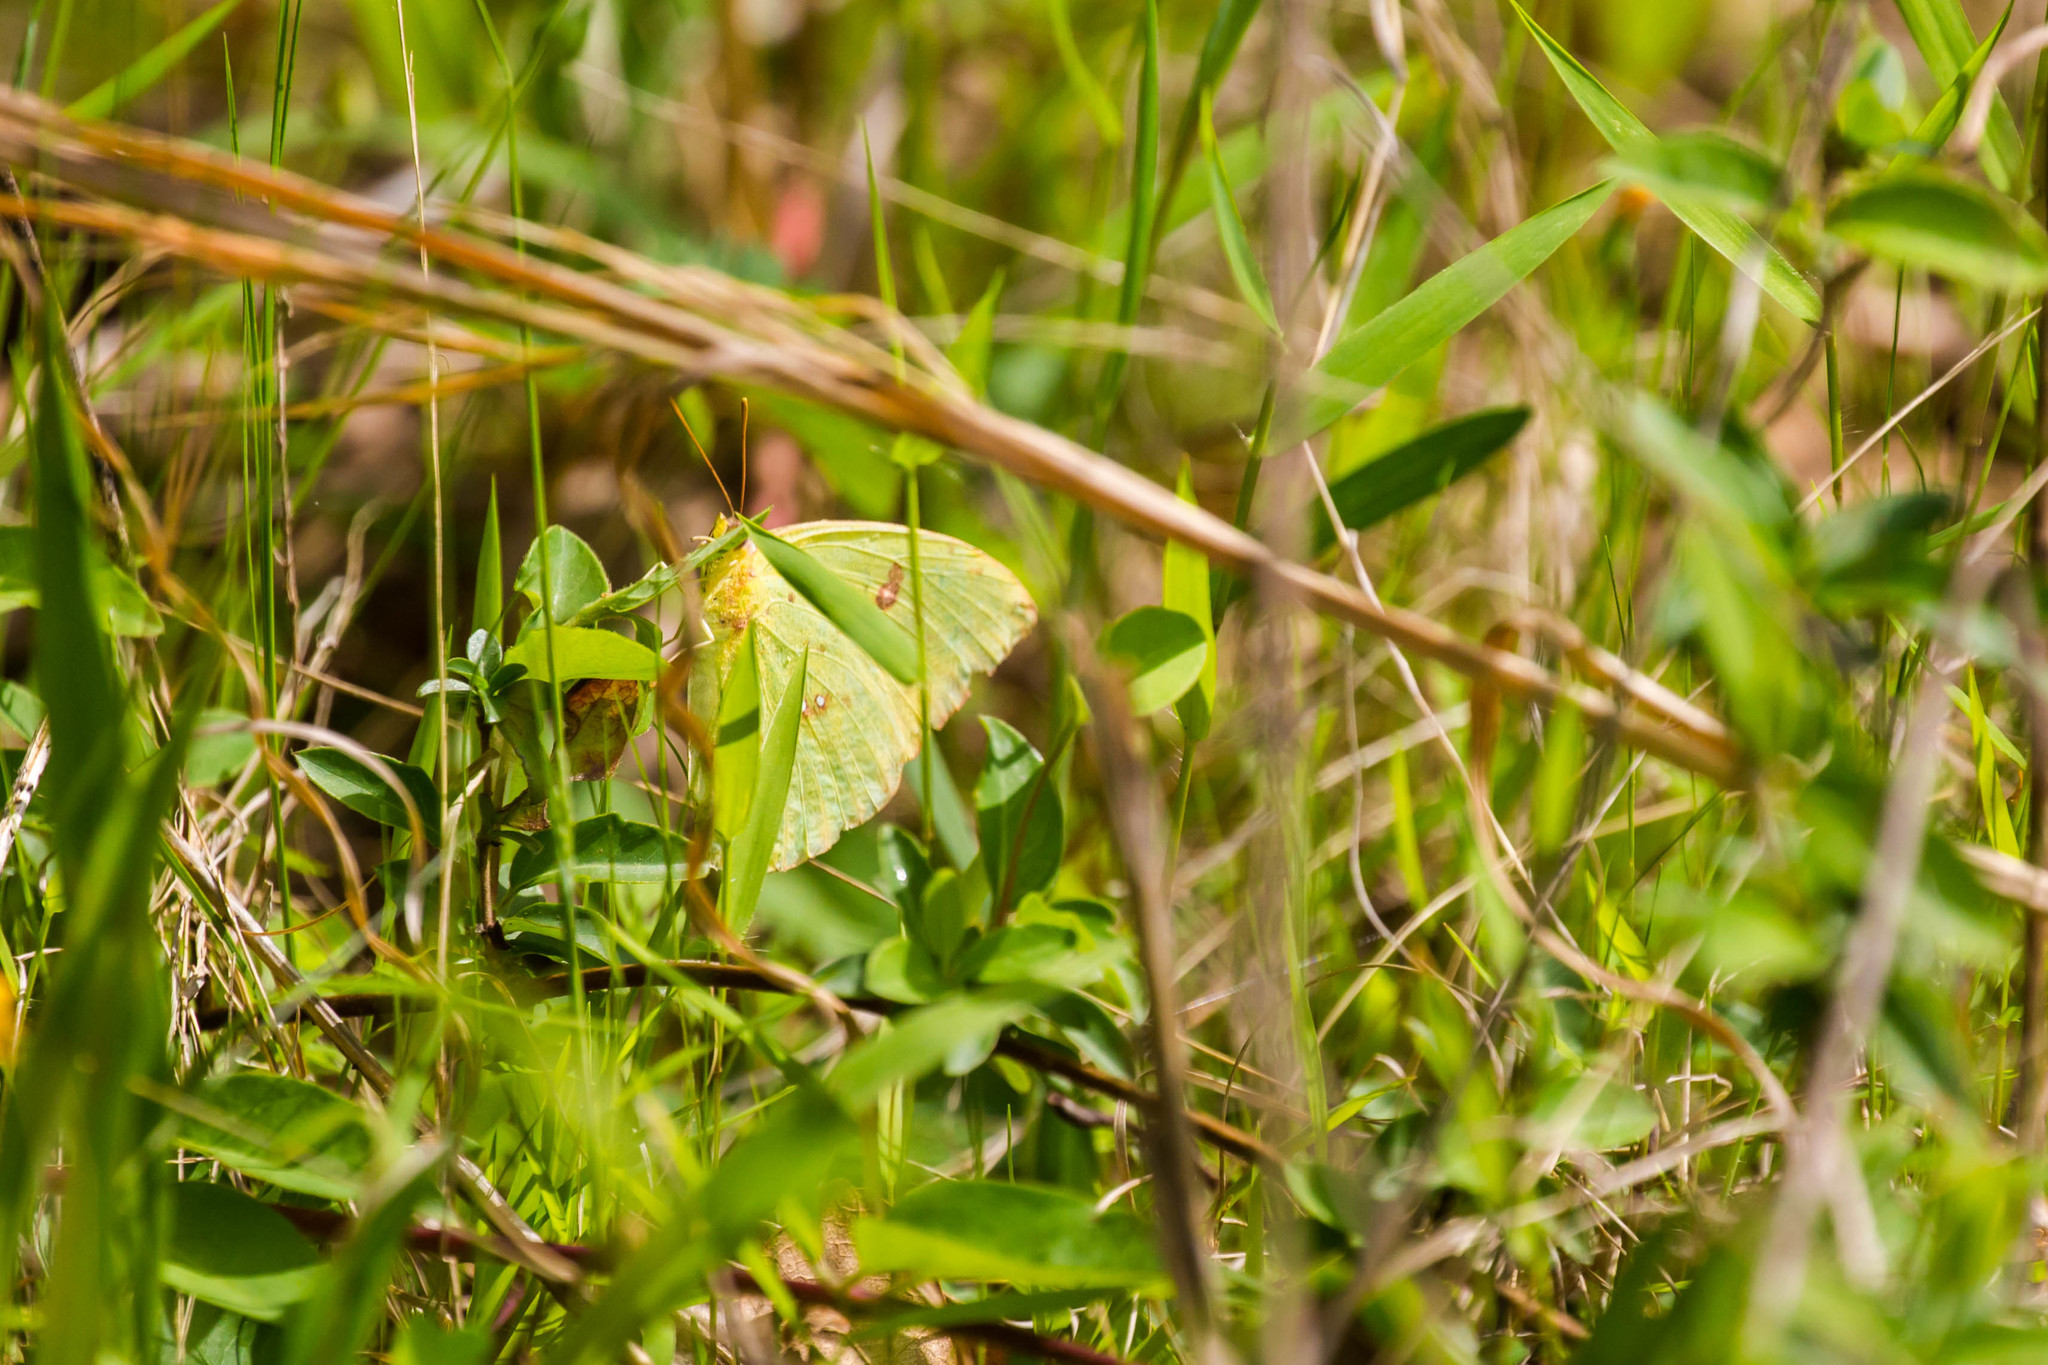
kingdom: Animalia
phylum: Arthropoda
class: Insecta
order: Lepidoptera
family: Pieridae
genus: Phoebis
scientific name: Phoebis sennae
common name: Cloudless sulphur
